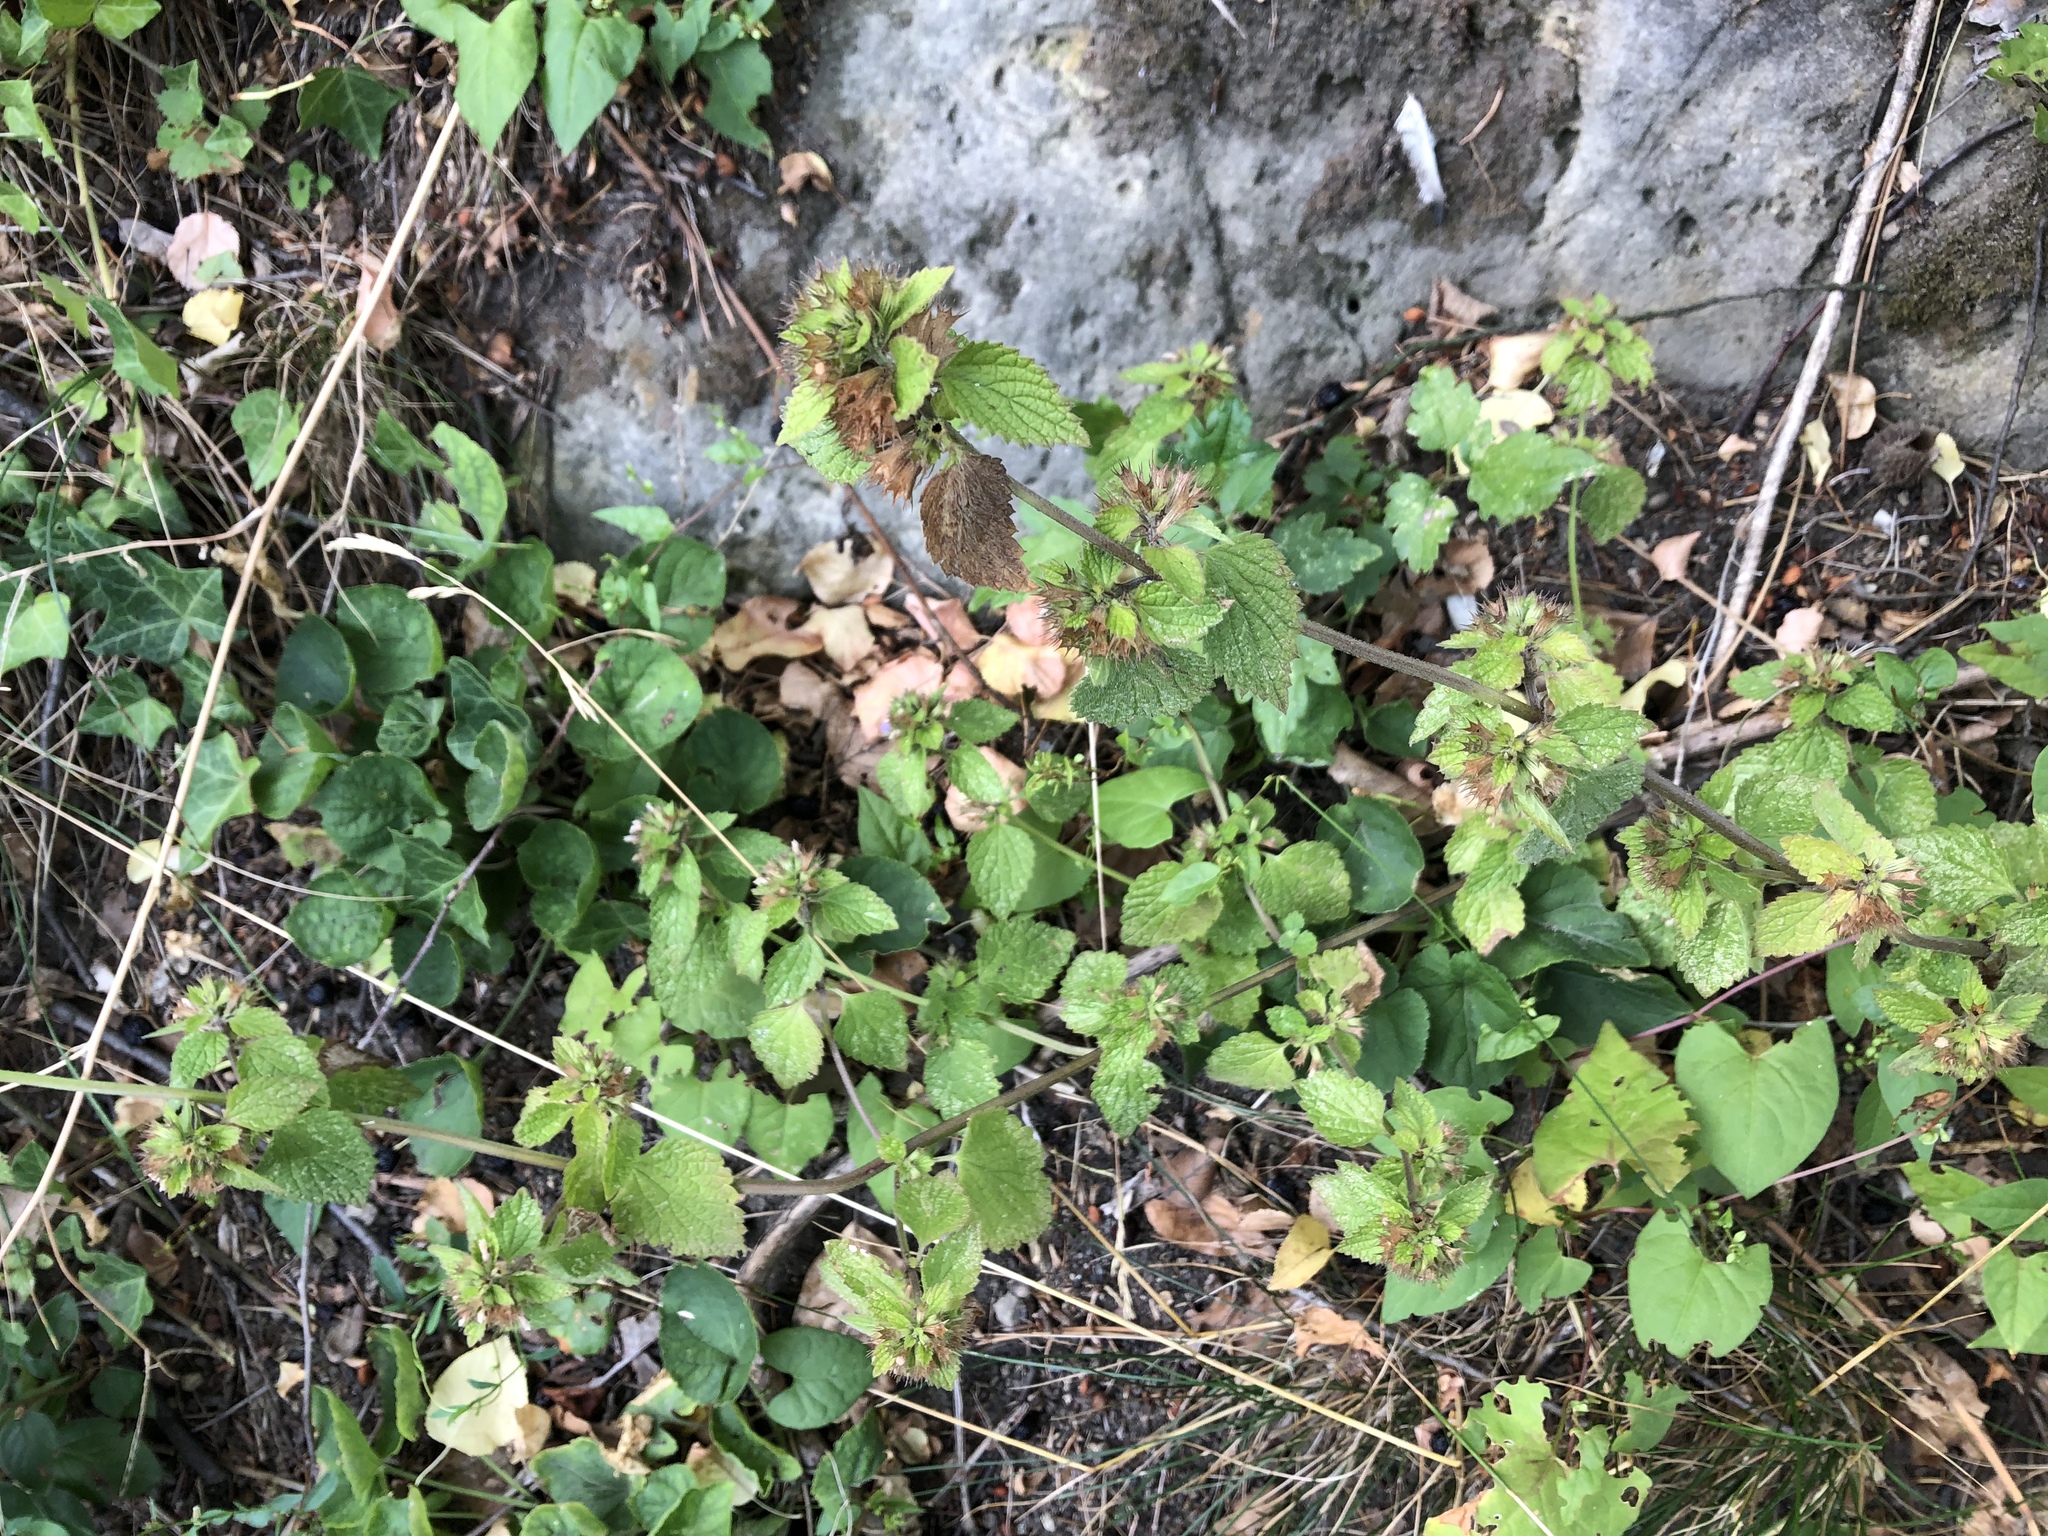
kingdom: Plantae
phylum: Tracheophyta
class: Magnoliopsida
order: Lamiales
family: Lamiaceae
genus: Ballota
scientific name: Ballota nigra
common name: Black horehound
